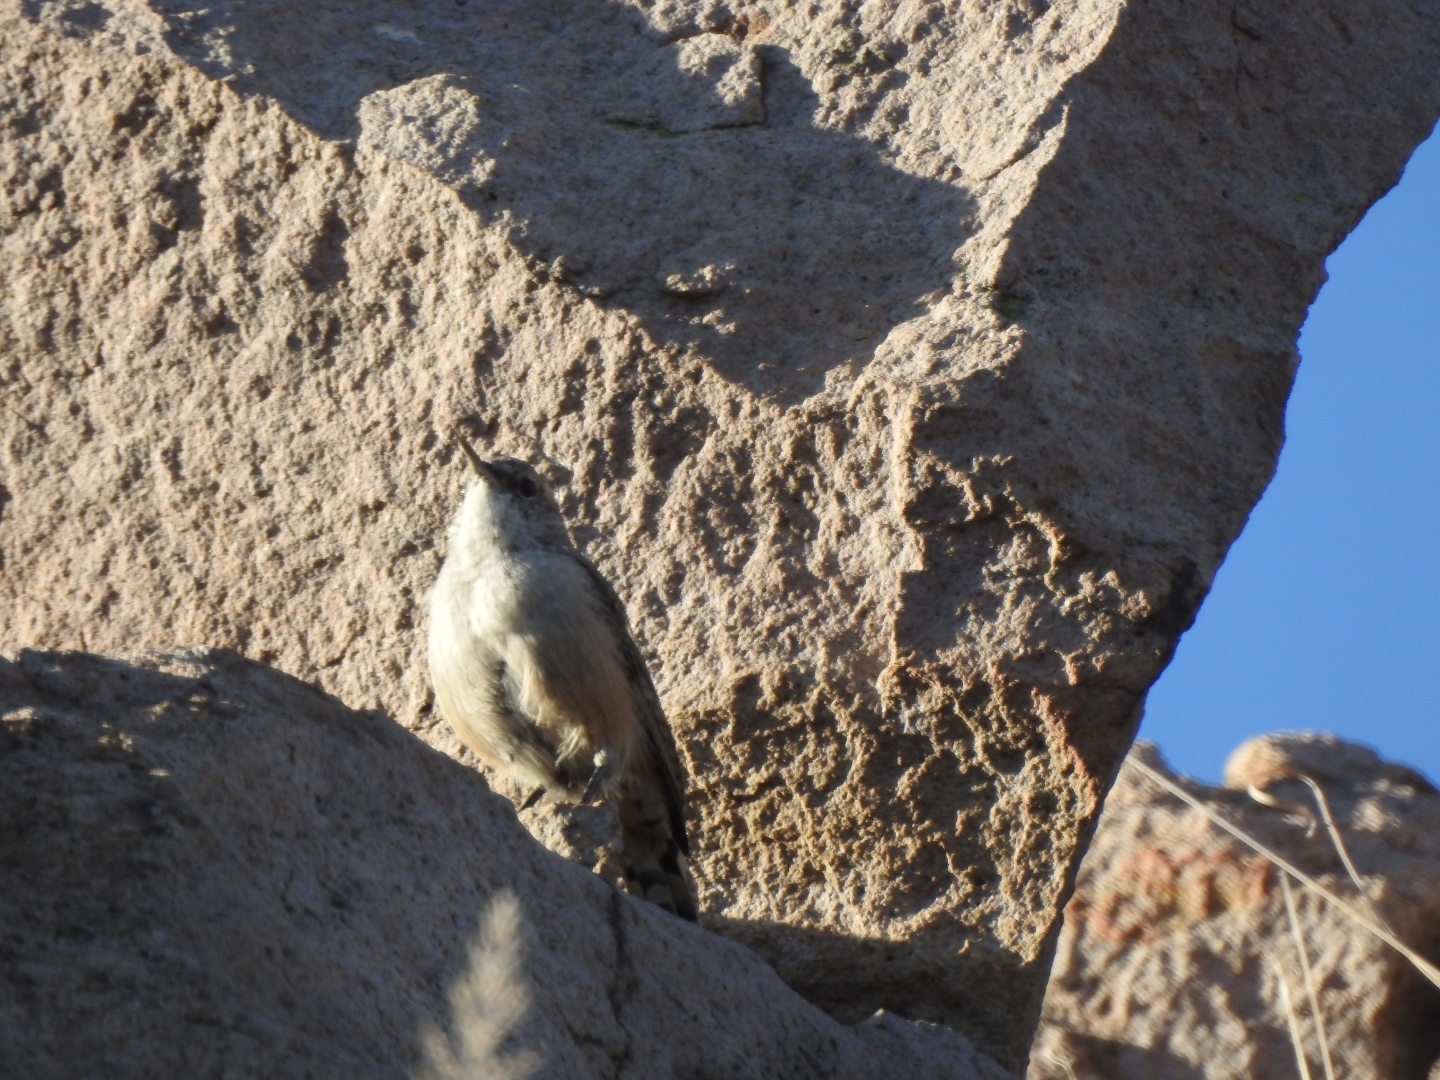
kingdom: Animalia
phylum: Chordata
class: Aves
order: Passeriformes
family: Troglodytidae
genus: Salpinctes
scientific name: Salpinctes obsoletus
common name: Rock wren
